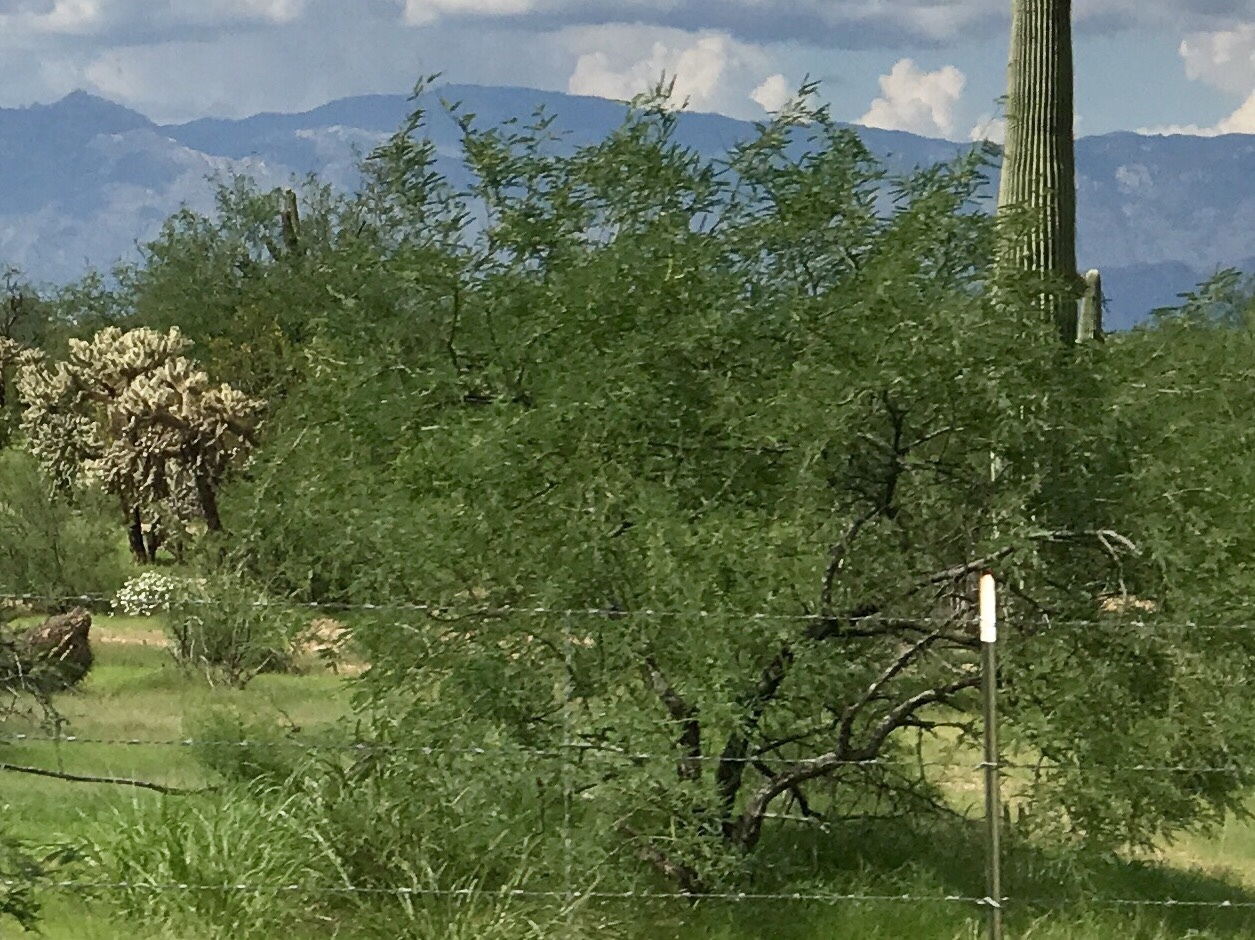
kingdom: Plantae
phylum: Tracheophyta
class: Magnoliopsida
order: Fabales
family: Fabaceae
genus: Prosopis
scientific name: Prosopis velutina
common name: Velvet mesquite
